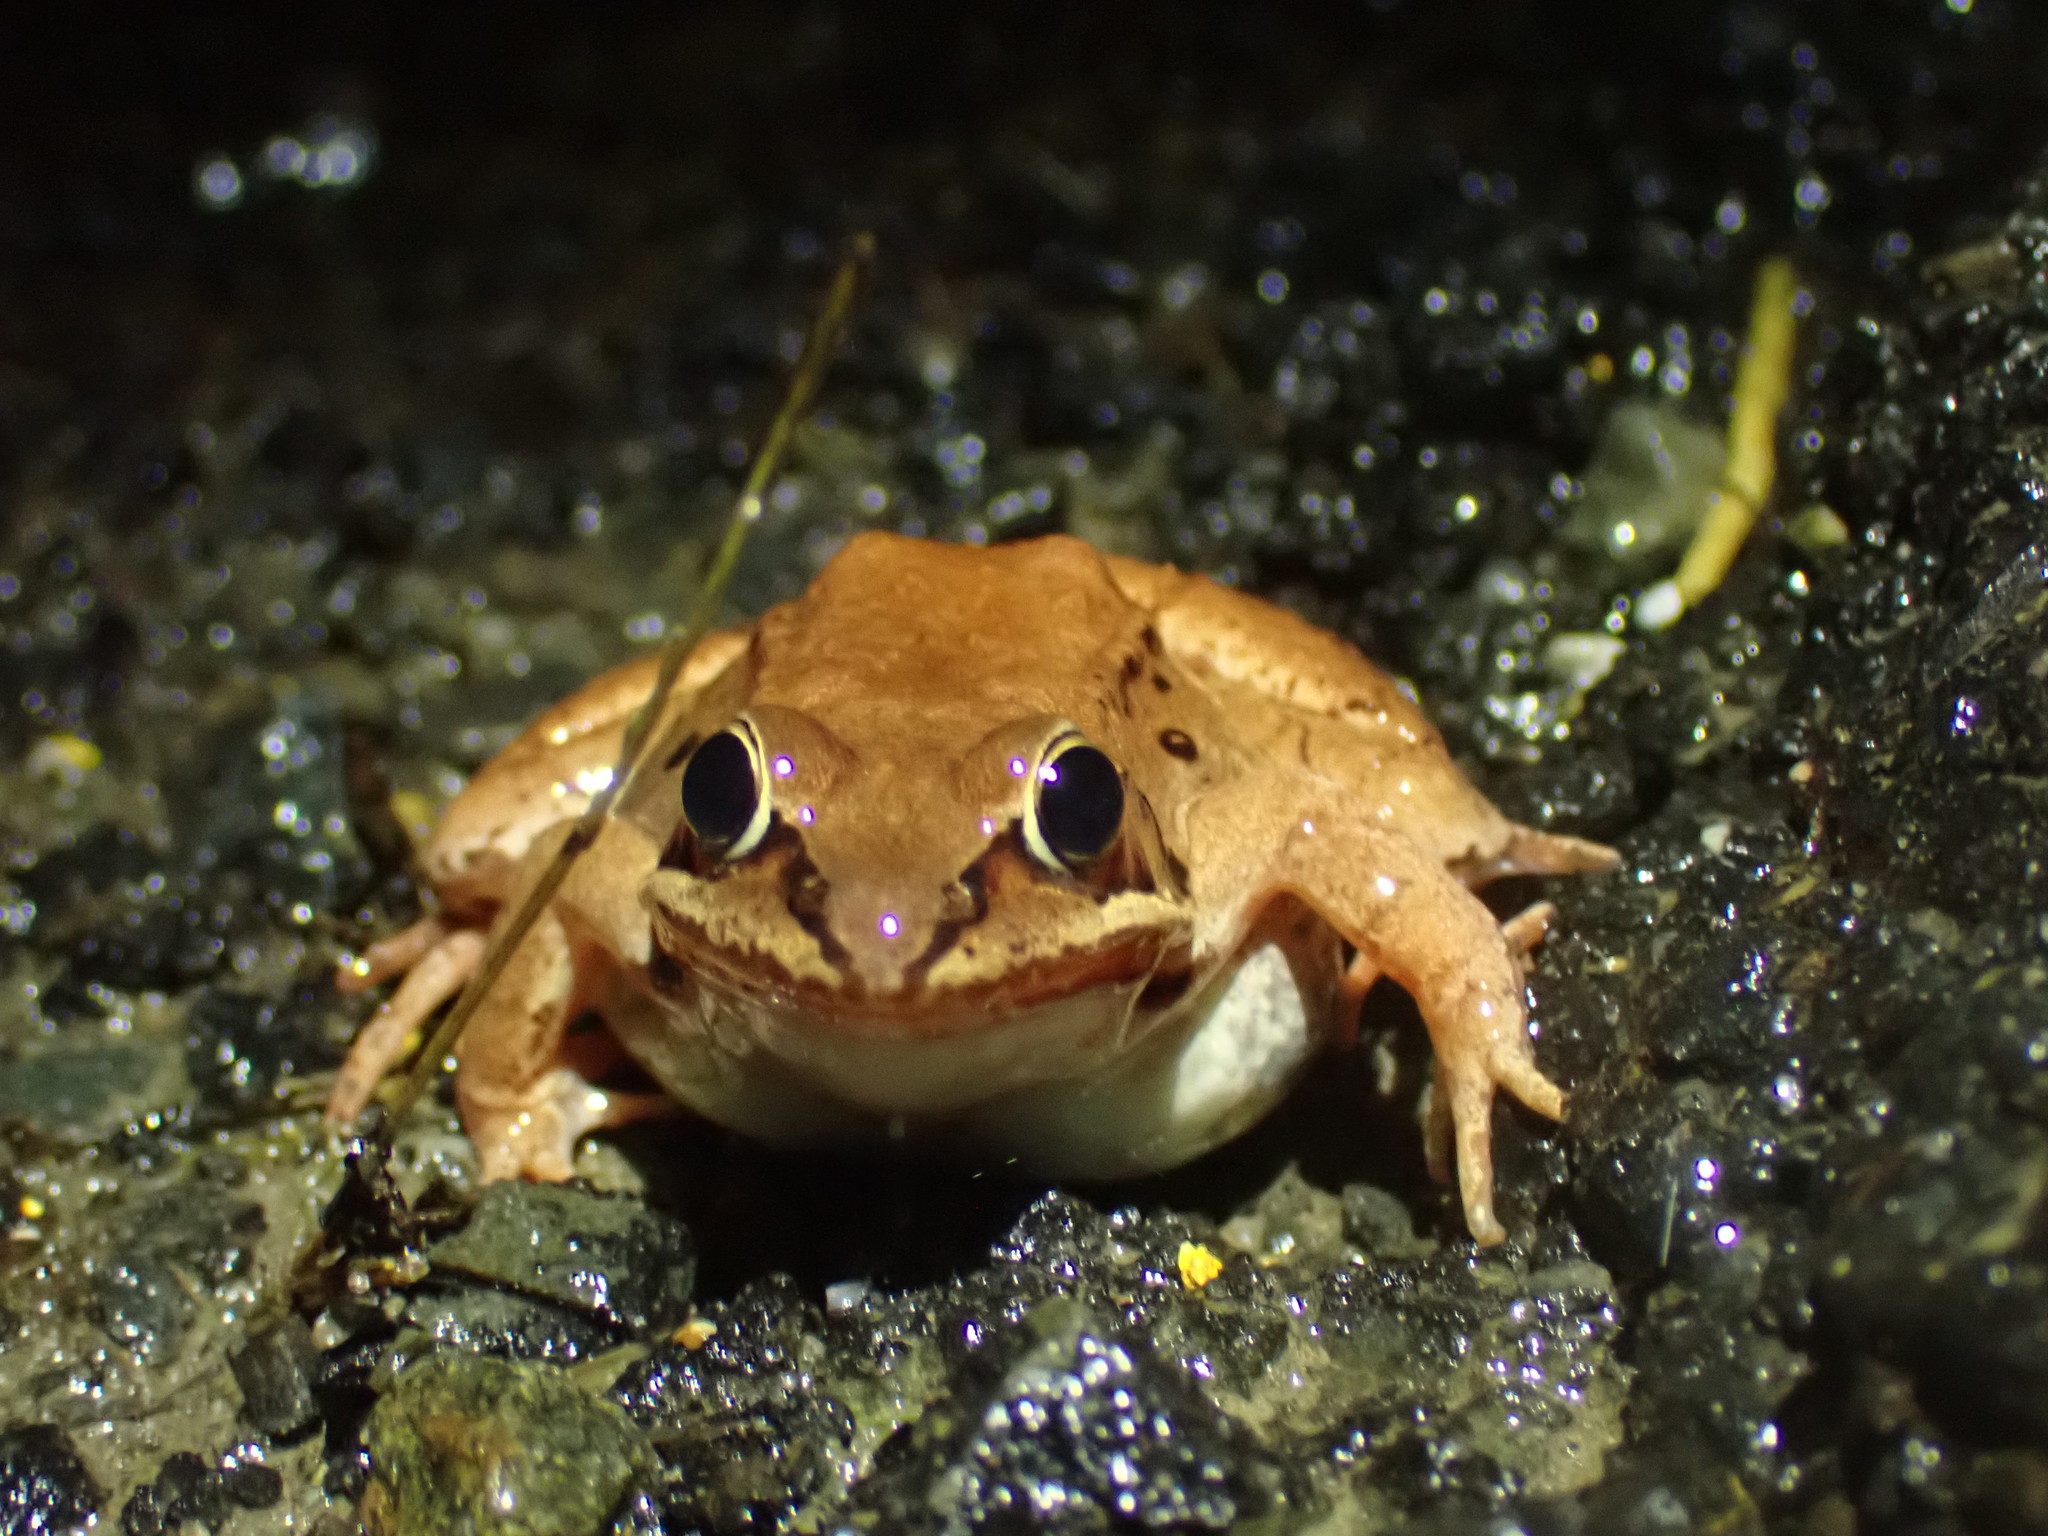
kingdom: Animalia
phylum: Chordata
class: Amphibia
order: Anura
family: Ranidae
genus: Lithobates
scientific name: Lithobates sylvaticus
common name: Wood frog
